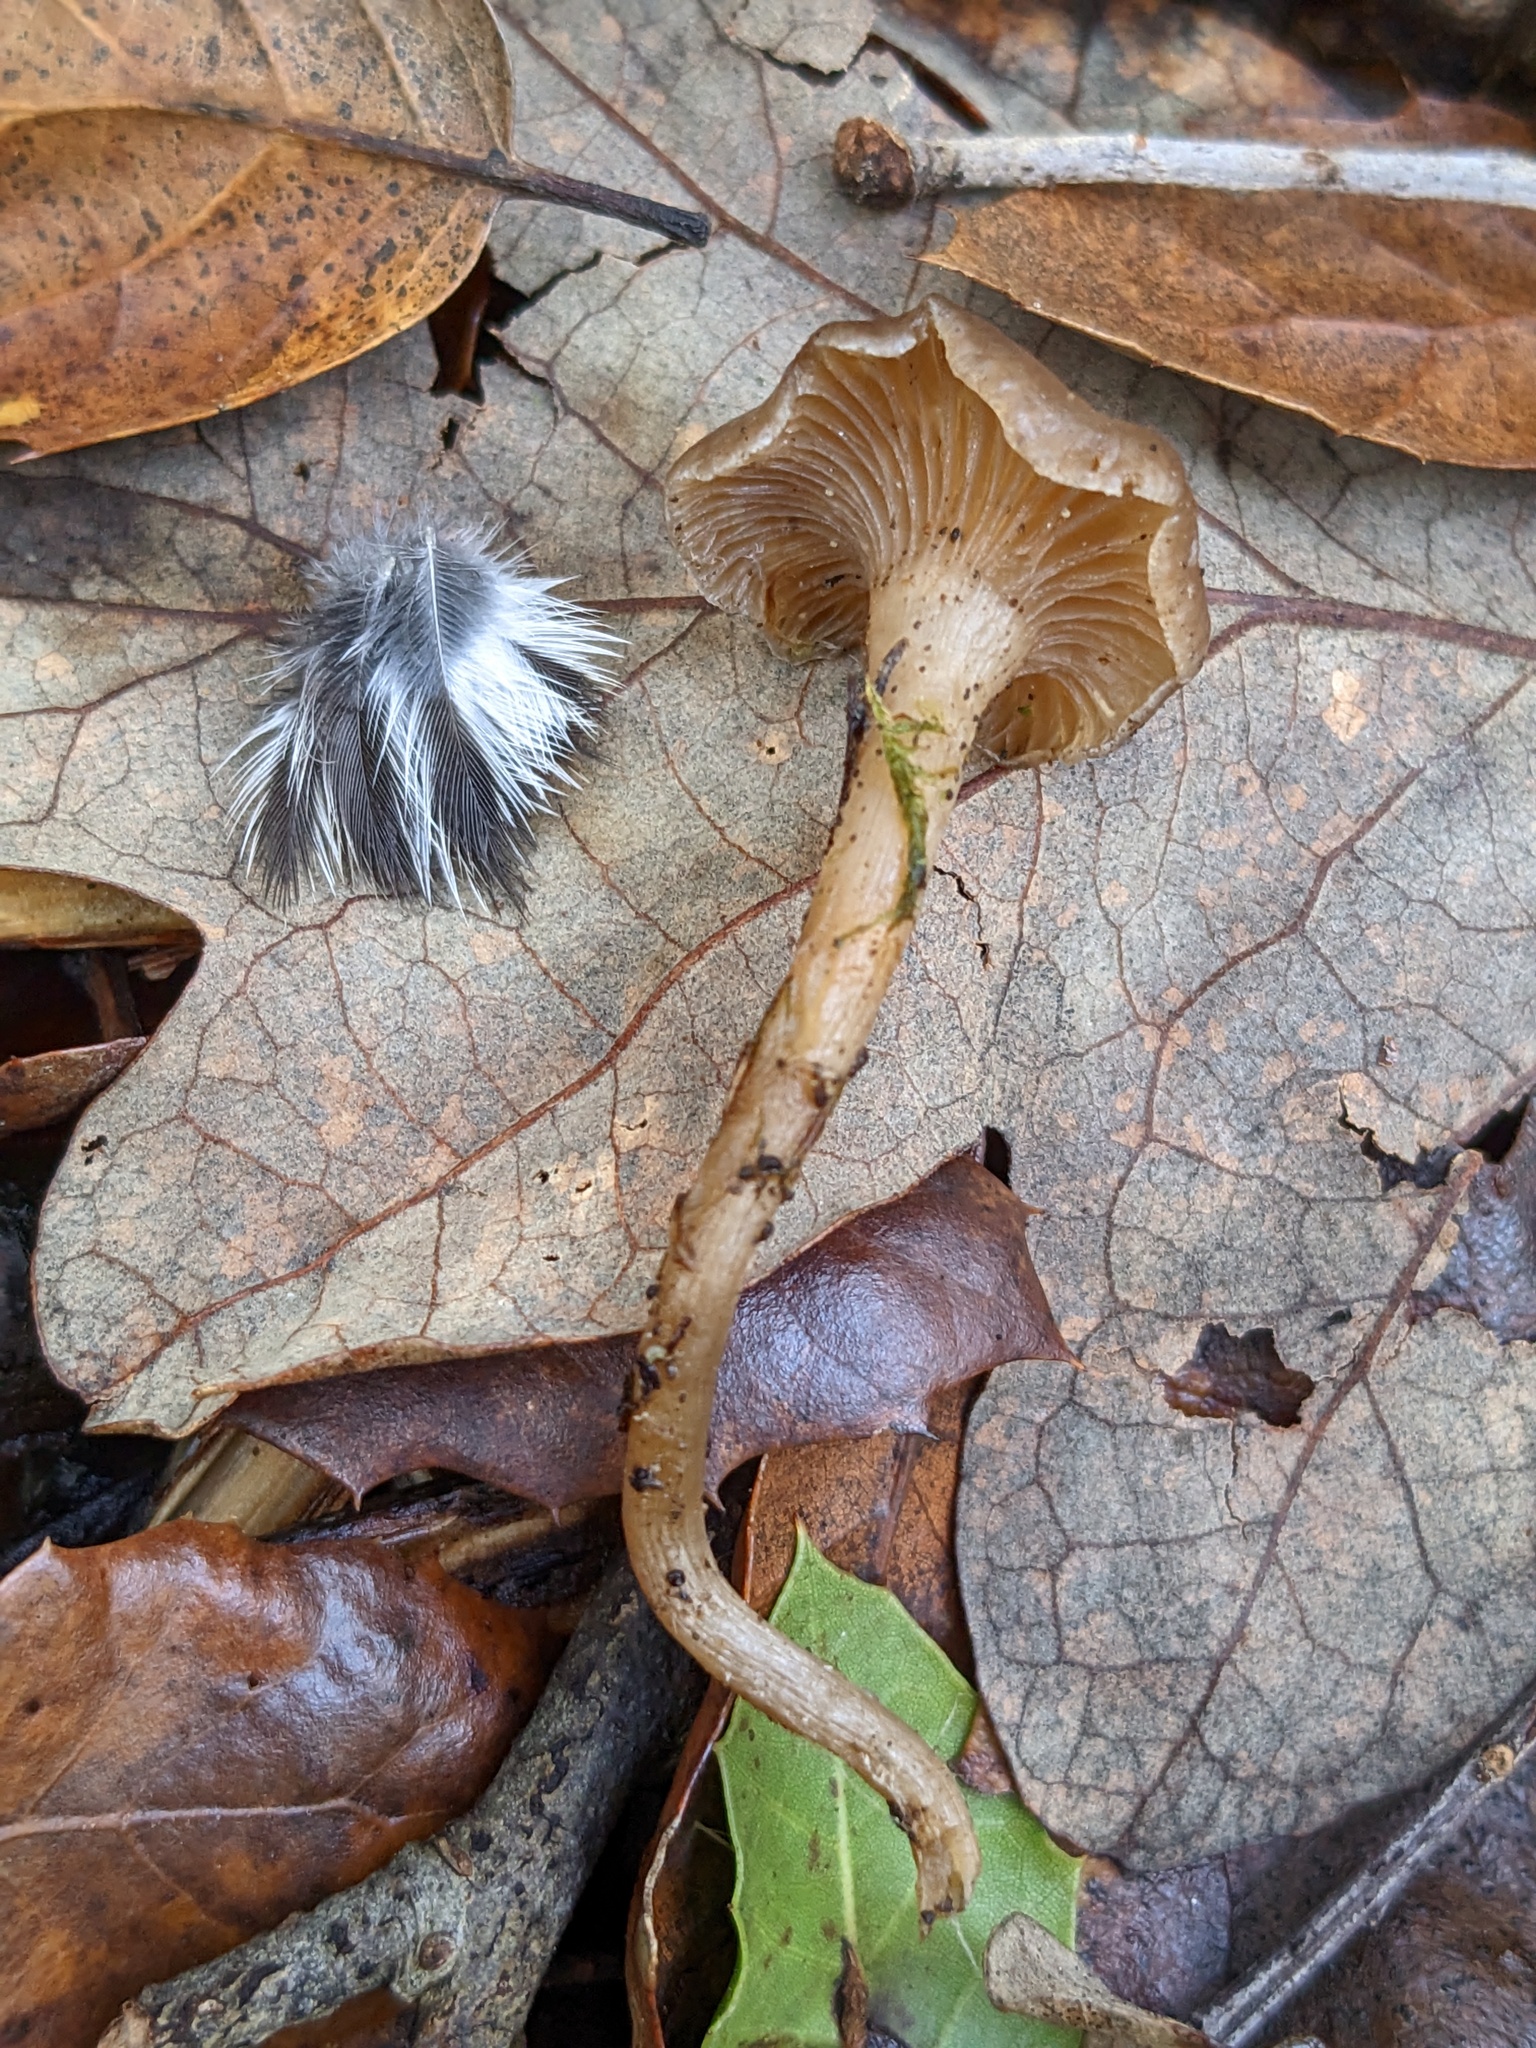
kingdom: Fungi
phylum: Basidiomycota
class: Agaricomycetes
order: Agaricales
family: Pseudoclitocybaceae
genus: Pseudoclitocybe
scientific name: Pseudoclitocybe cyathiformis
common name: Goblet
